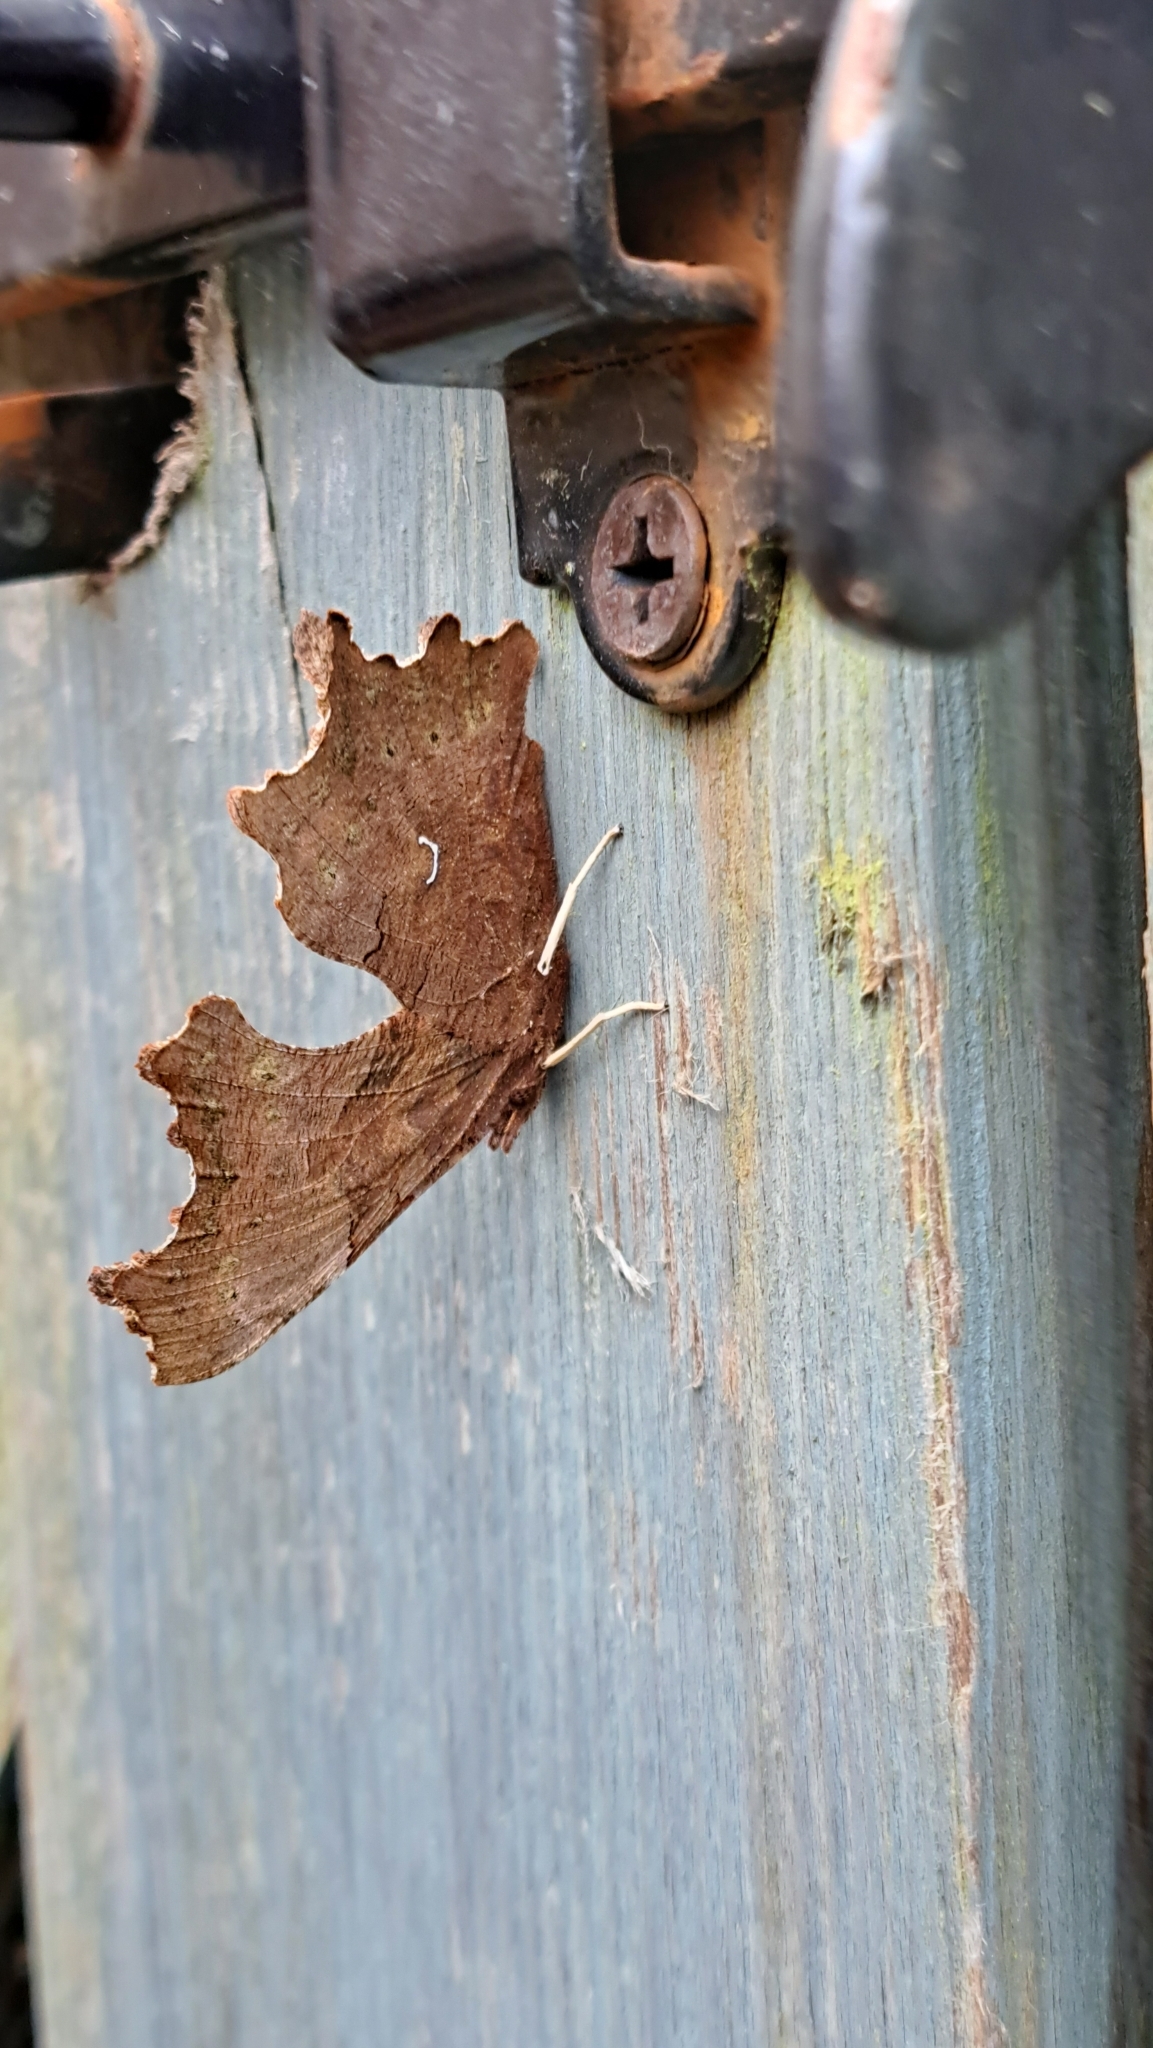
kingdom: Animalia
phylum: Arthropoda
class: Insecta
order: Lepidoptera
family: Nymphalidae
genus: Polygonia
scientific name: Polygonia c-album
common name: Comma
